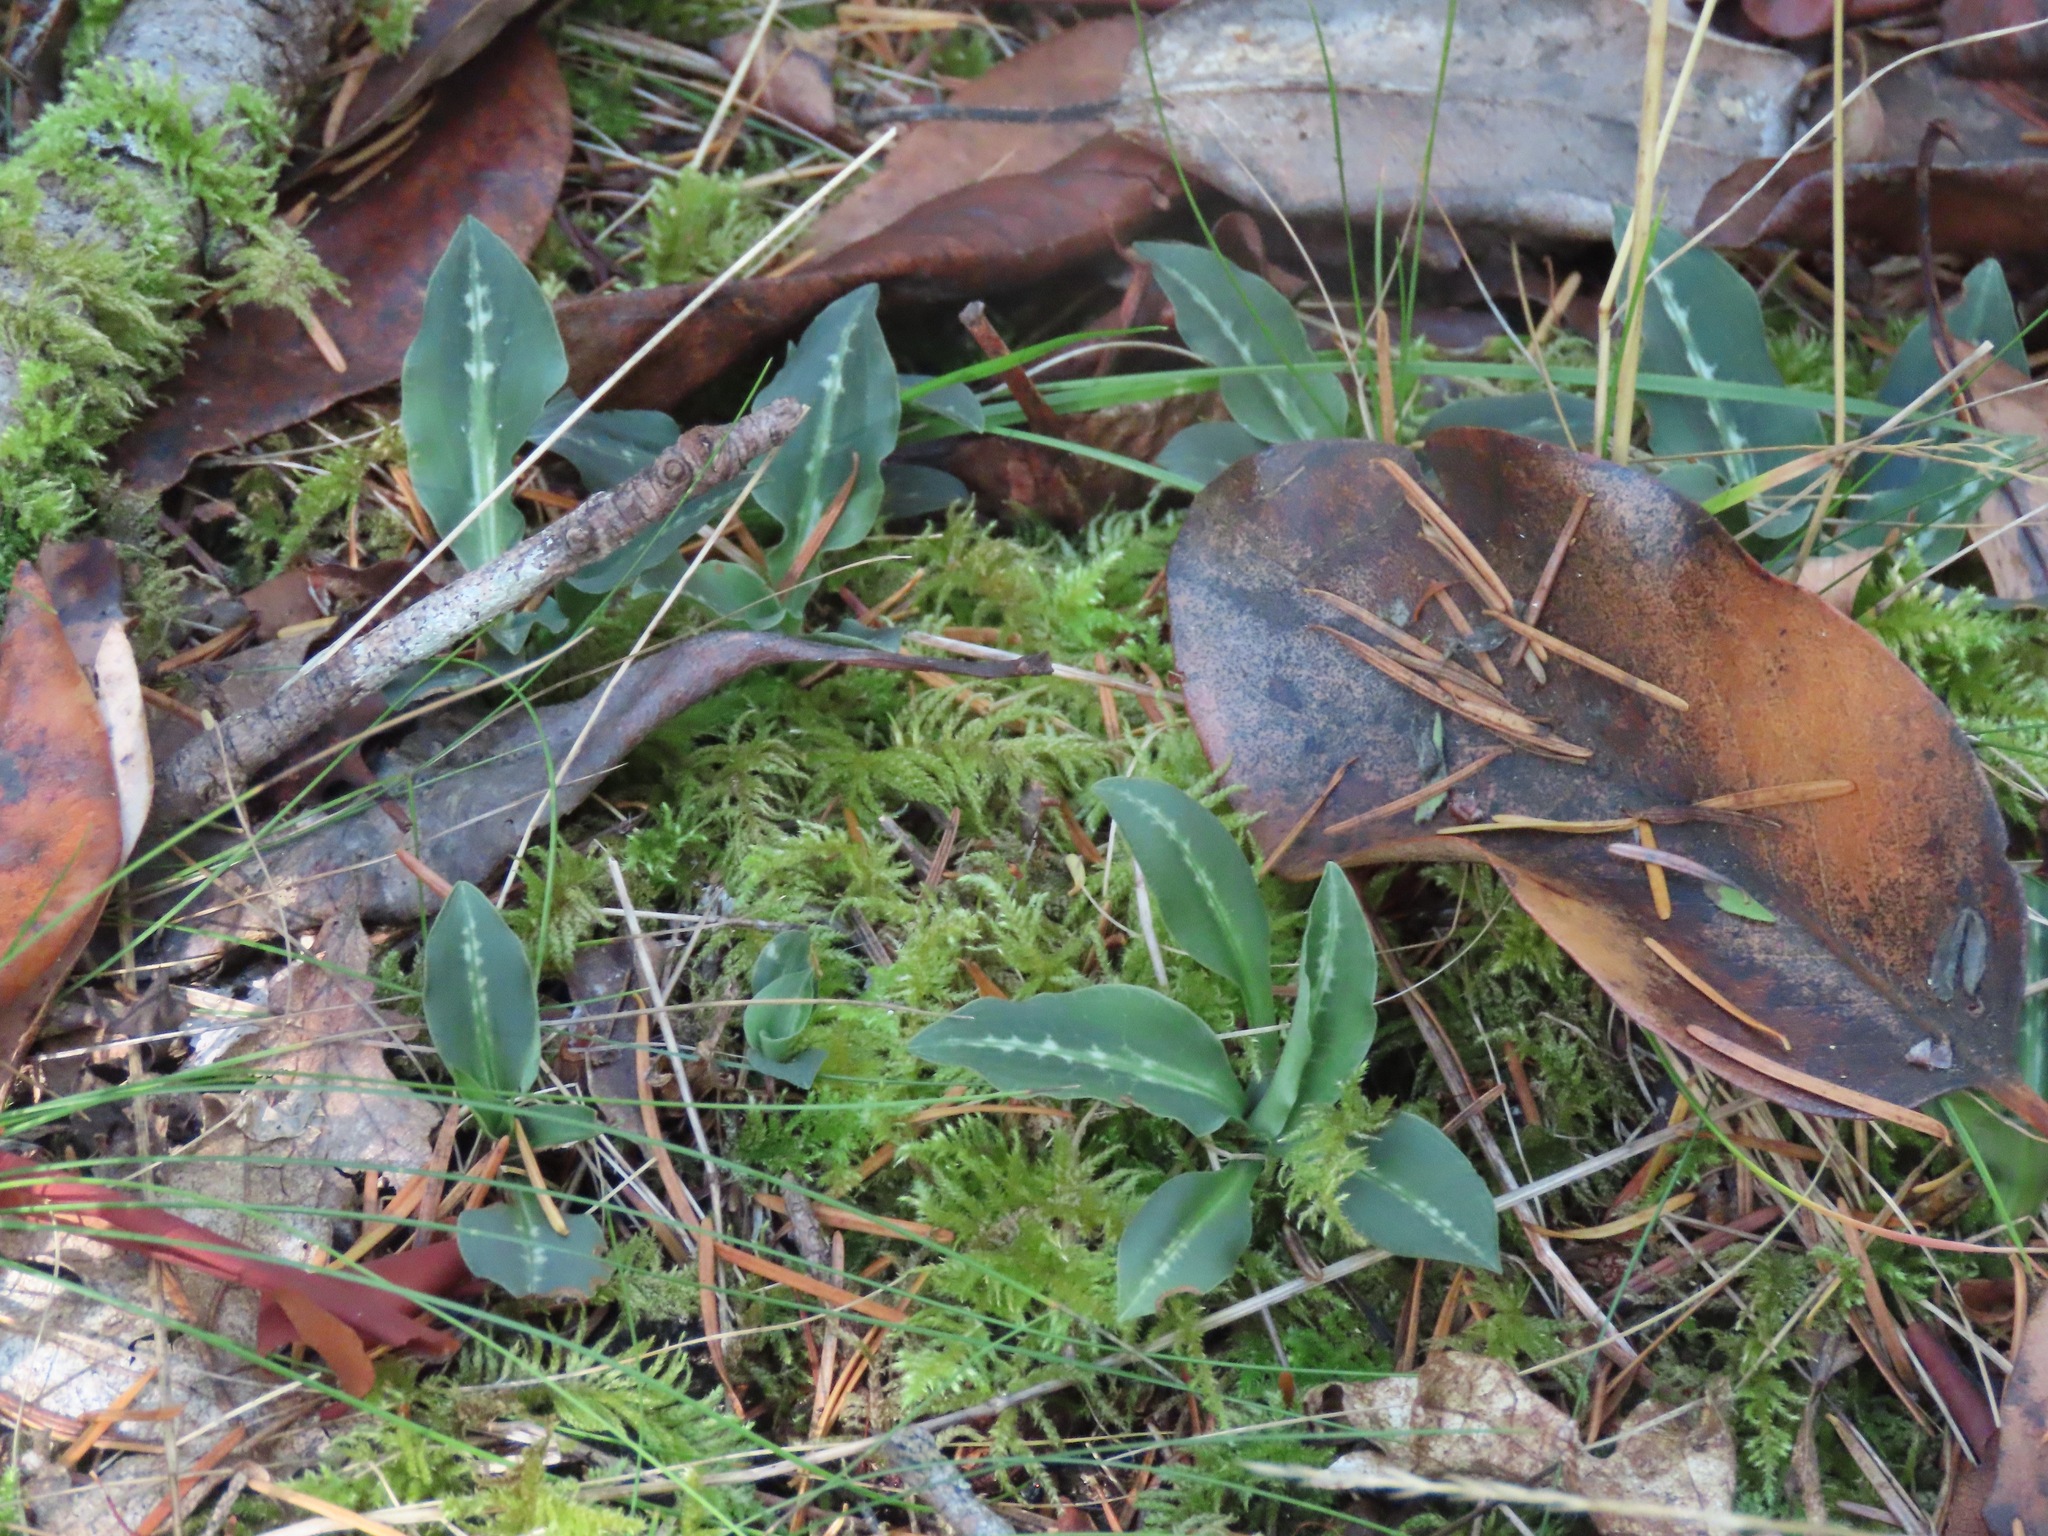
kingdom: Plantae
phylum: Tracheophyta
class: Liliopsida
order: Asparagales
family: Orchidaceae
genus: Goodyera
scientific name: Goodyera oblongifolia
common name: Giant rattlesnake-plantain
